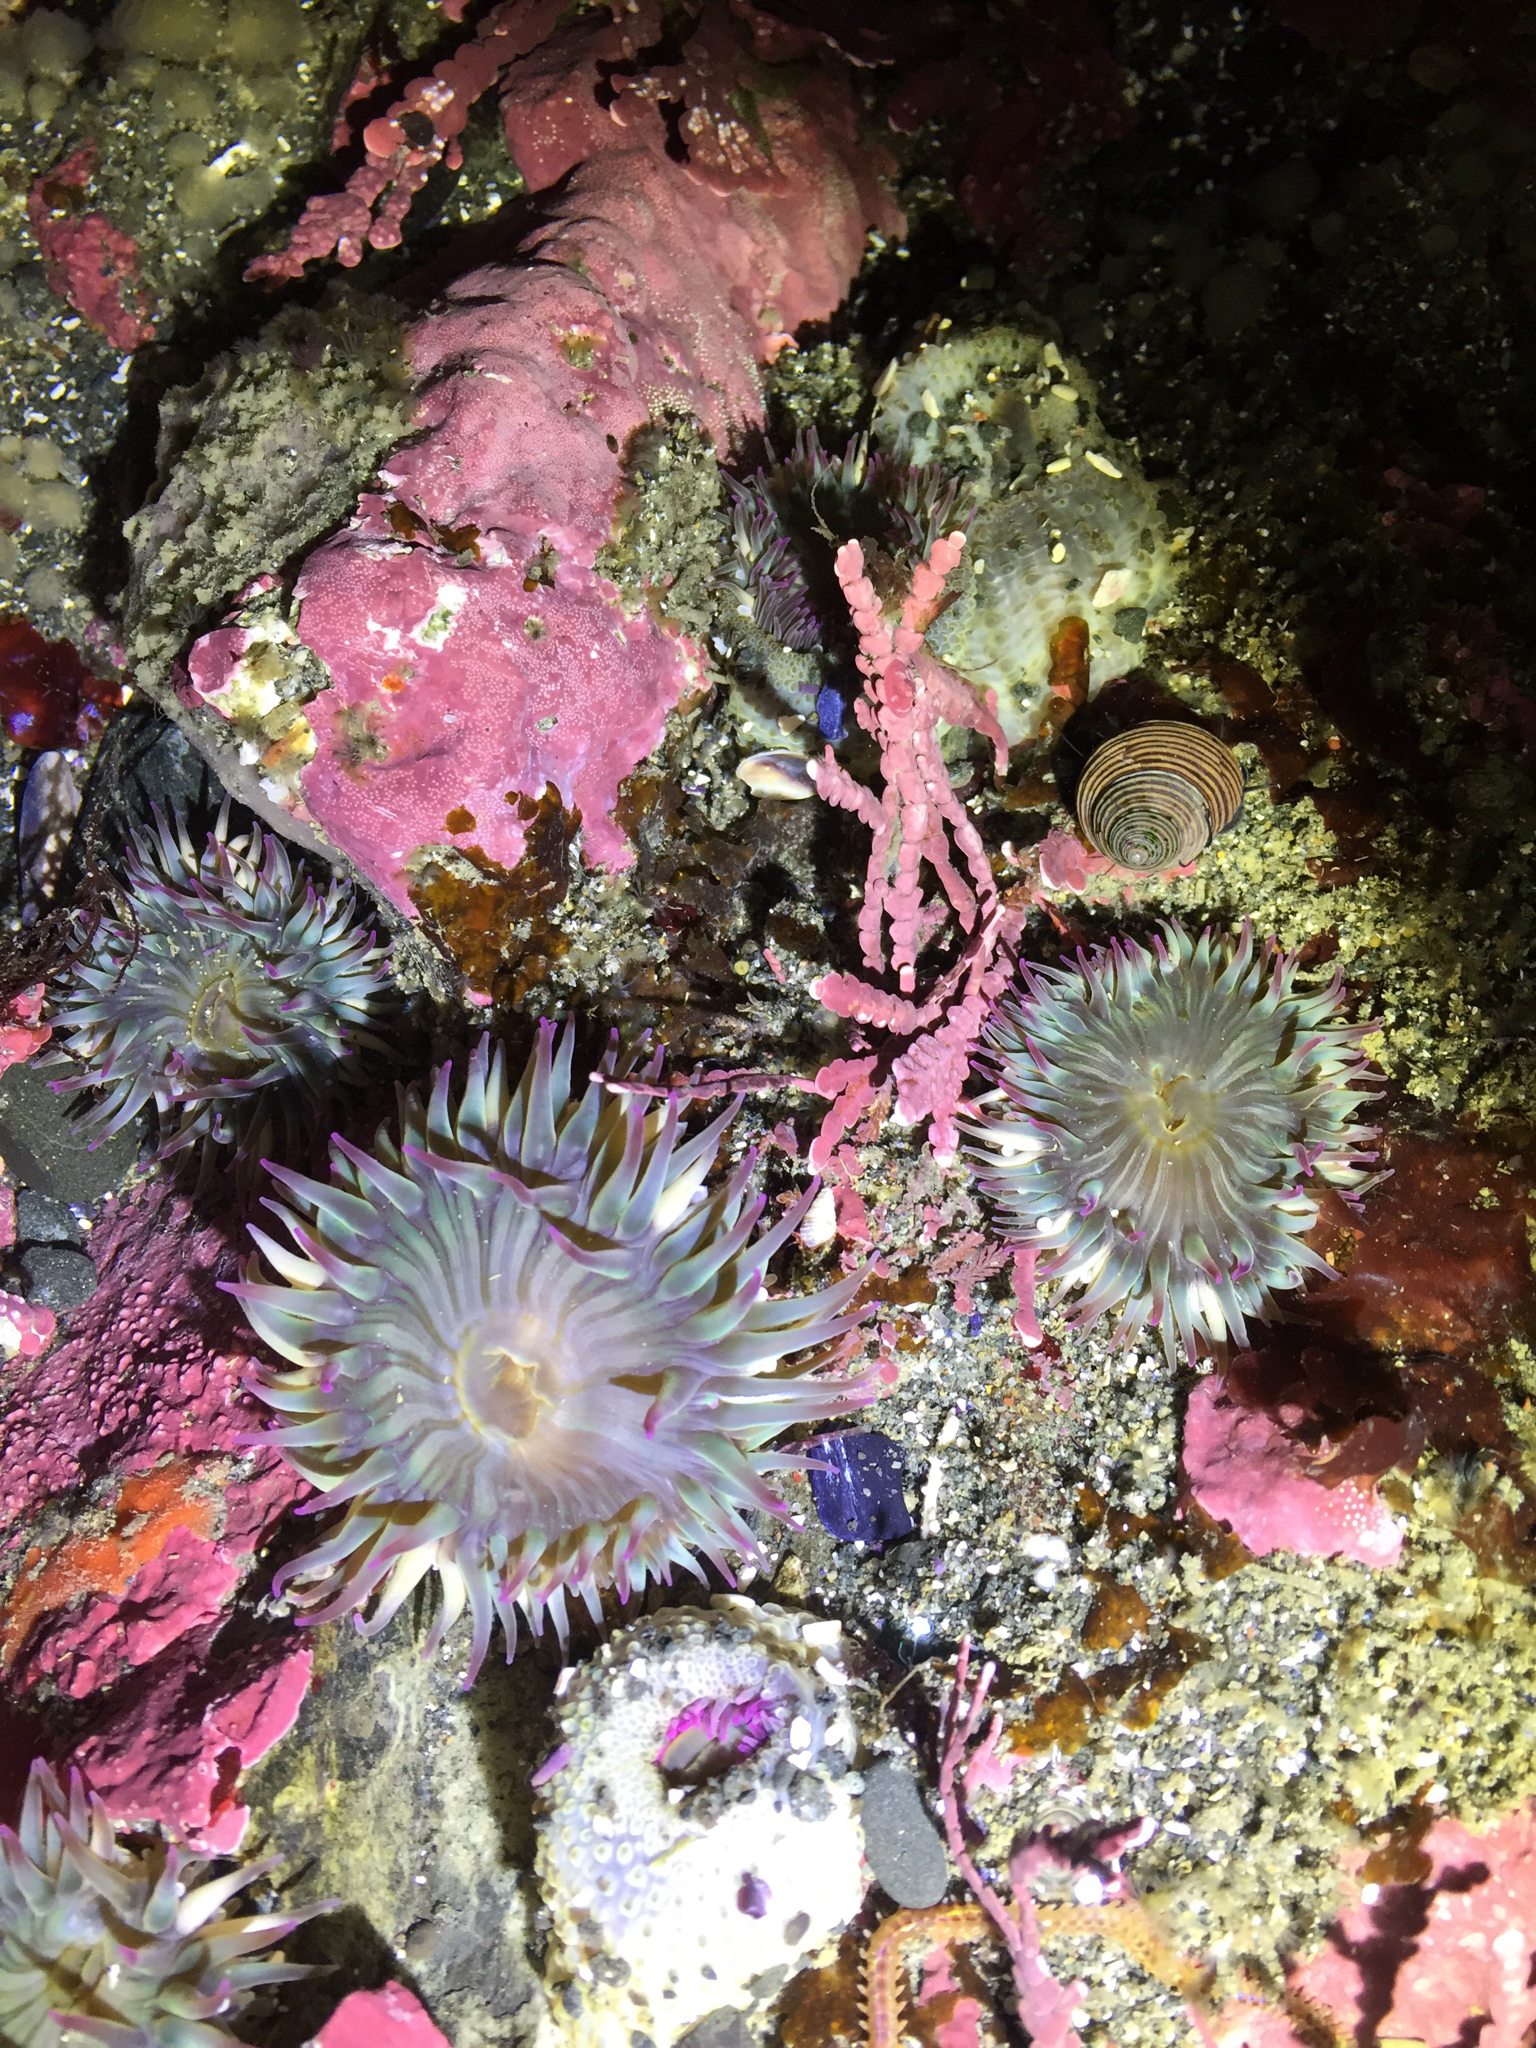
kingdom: Animalia
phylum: Cnidaria
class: Anthozoa
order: Actiniaria
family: Actiniidae
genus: Anthopleura
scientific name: Anthopleura elegantissima
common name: Clonal anemone
